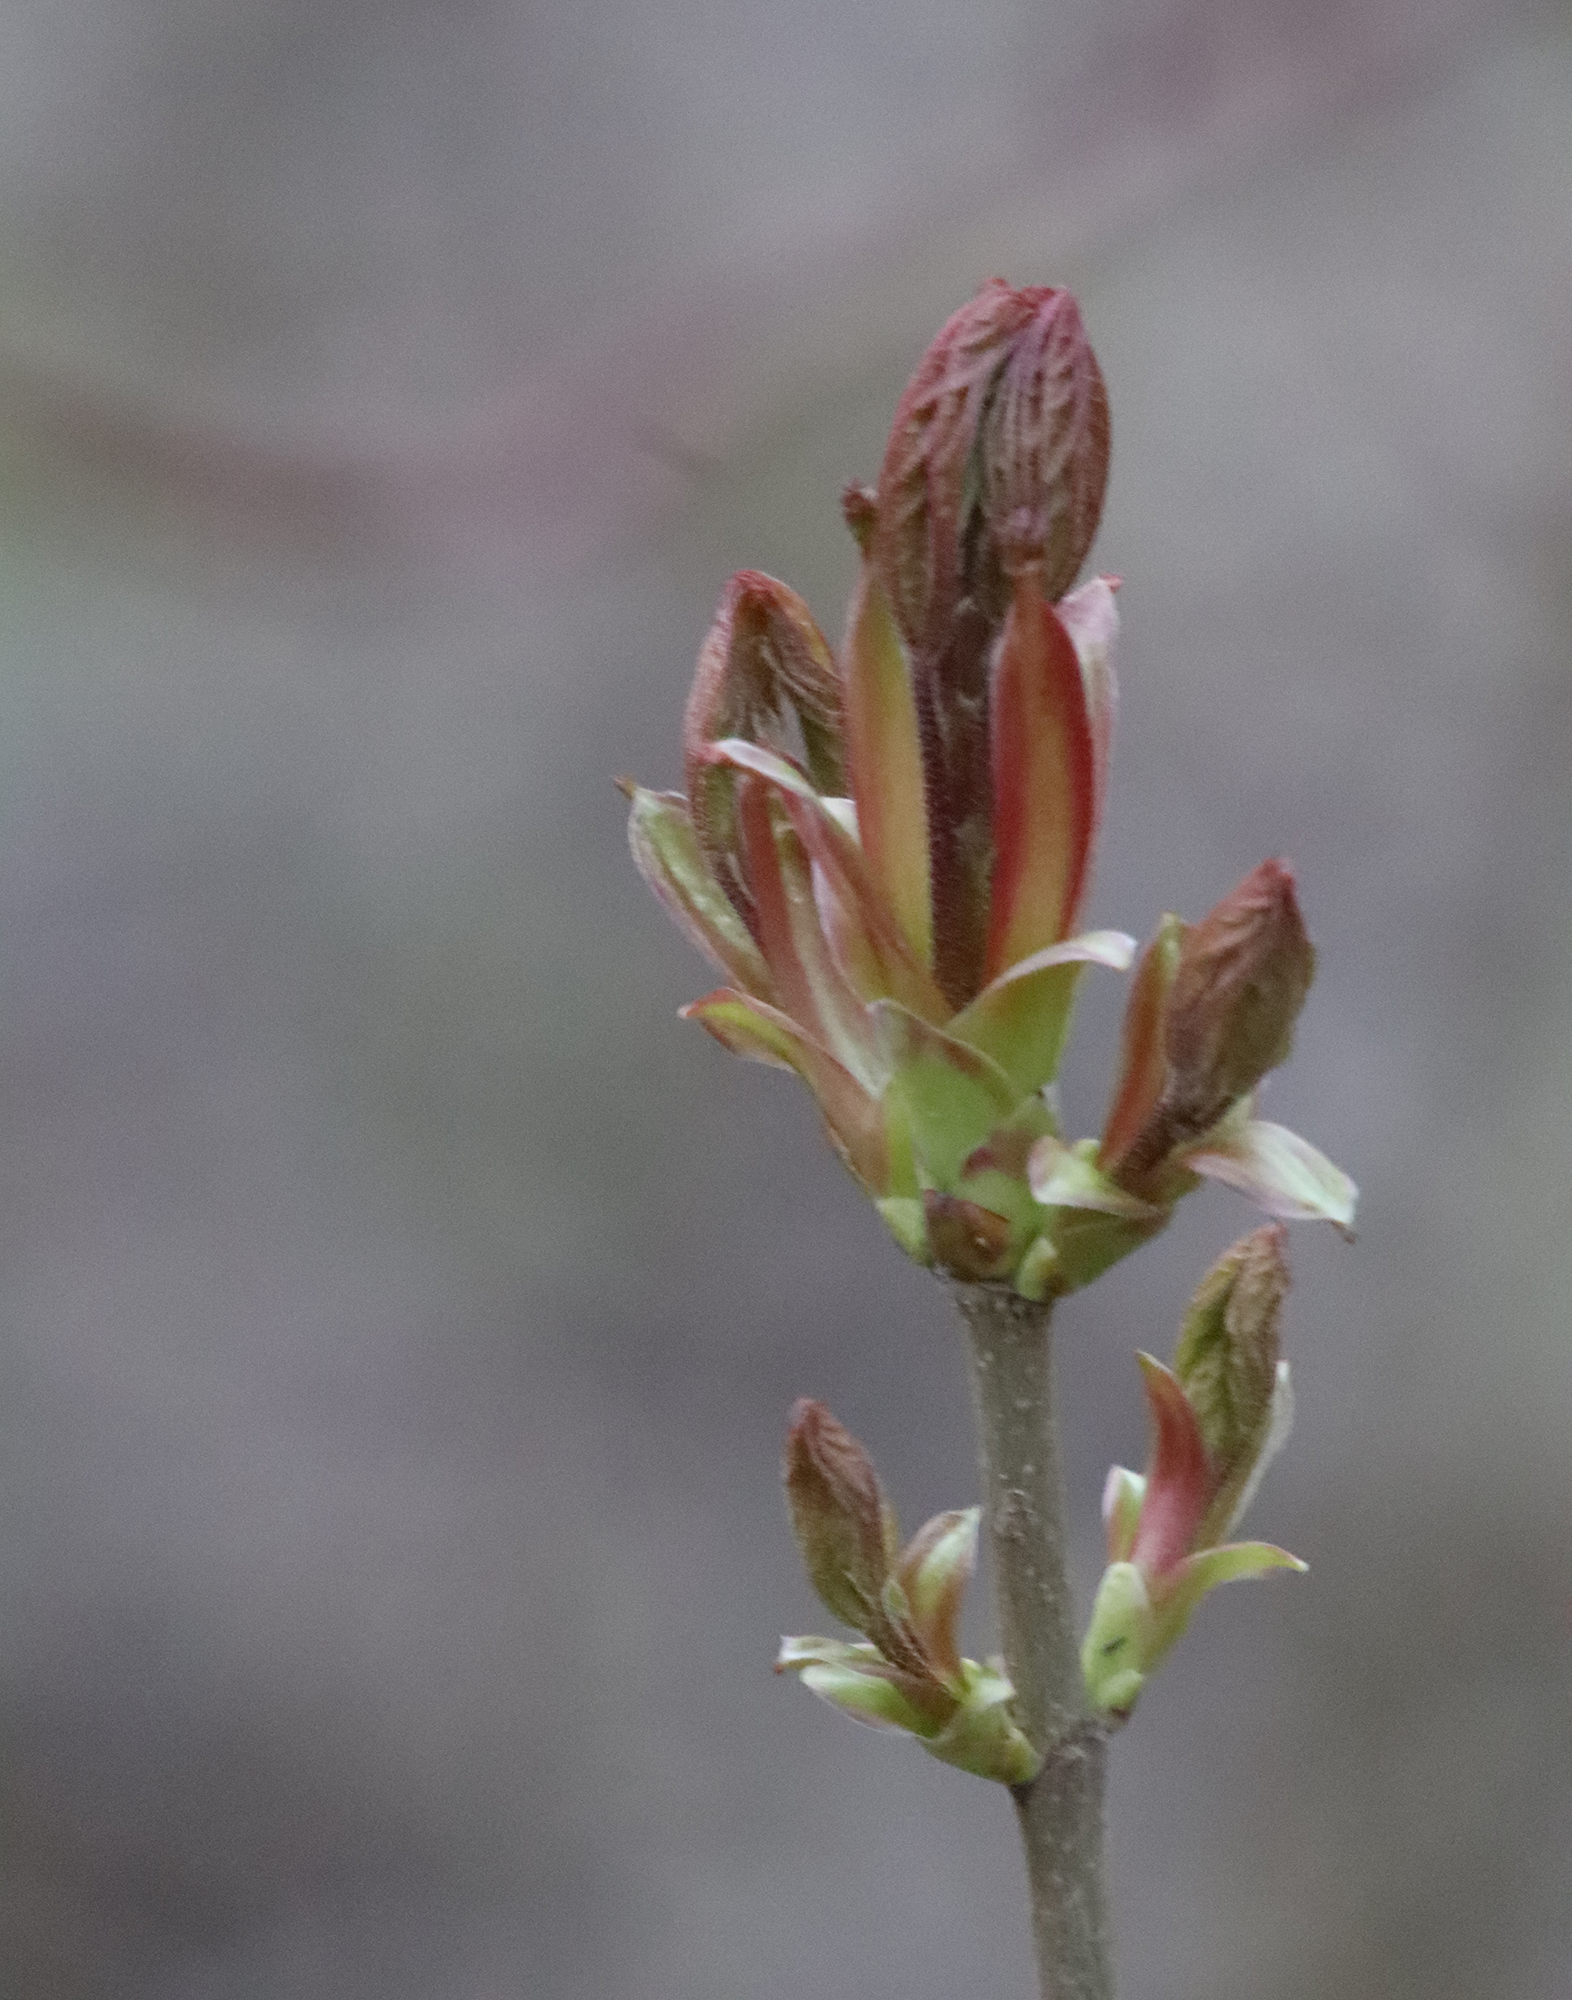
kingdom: Plantae
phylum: Tracheophyta
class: Magnoliopsida
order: Sapindales
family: Sapindaceae
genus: Acer
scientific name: Acer platanoides
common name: Norway maple
